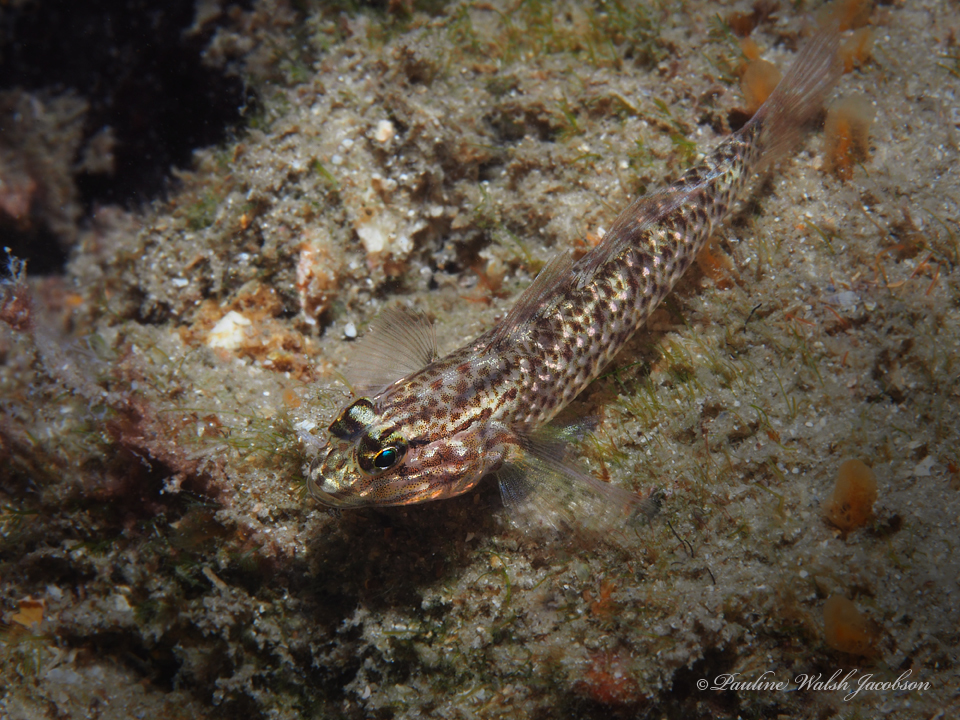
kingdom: Animalia
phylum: Chordata
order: Perciformes
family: Gobiidae
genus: Coryphopterus
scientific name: Coryphopterus dicrus
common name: Colon goby
